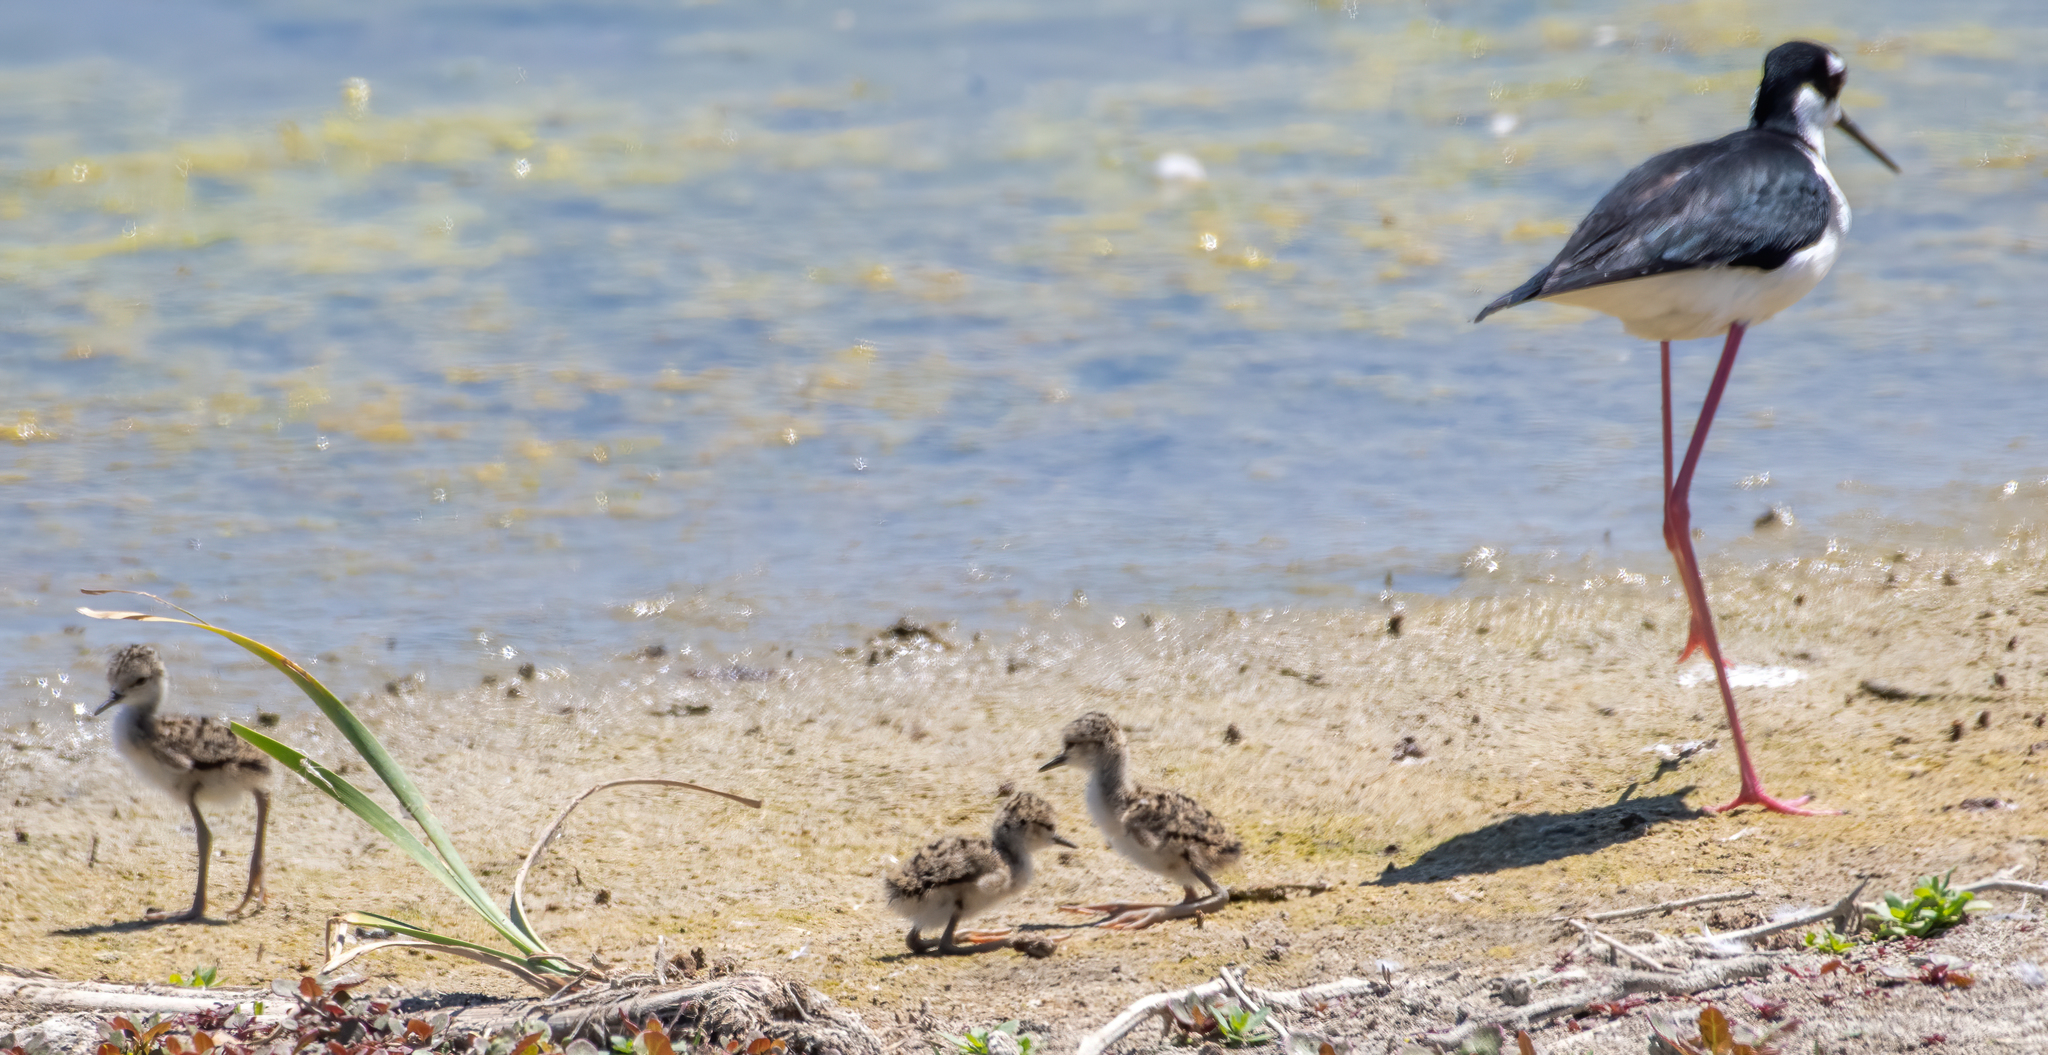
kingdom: Animalia
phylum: Chordata
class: Aves
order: Charadriiformes
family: Recurvirostridae
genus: Himantopus
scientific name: Himantopus mexicanus
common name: Black-necked stilt
